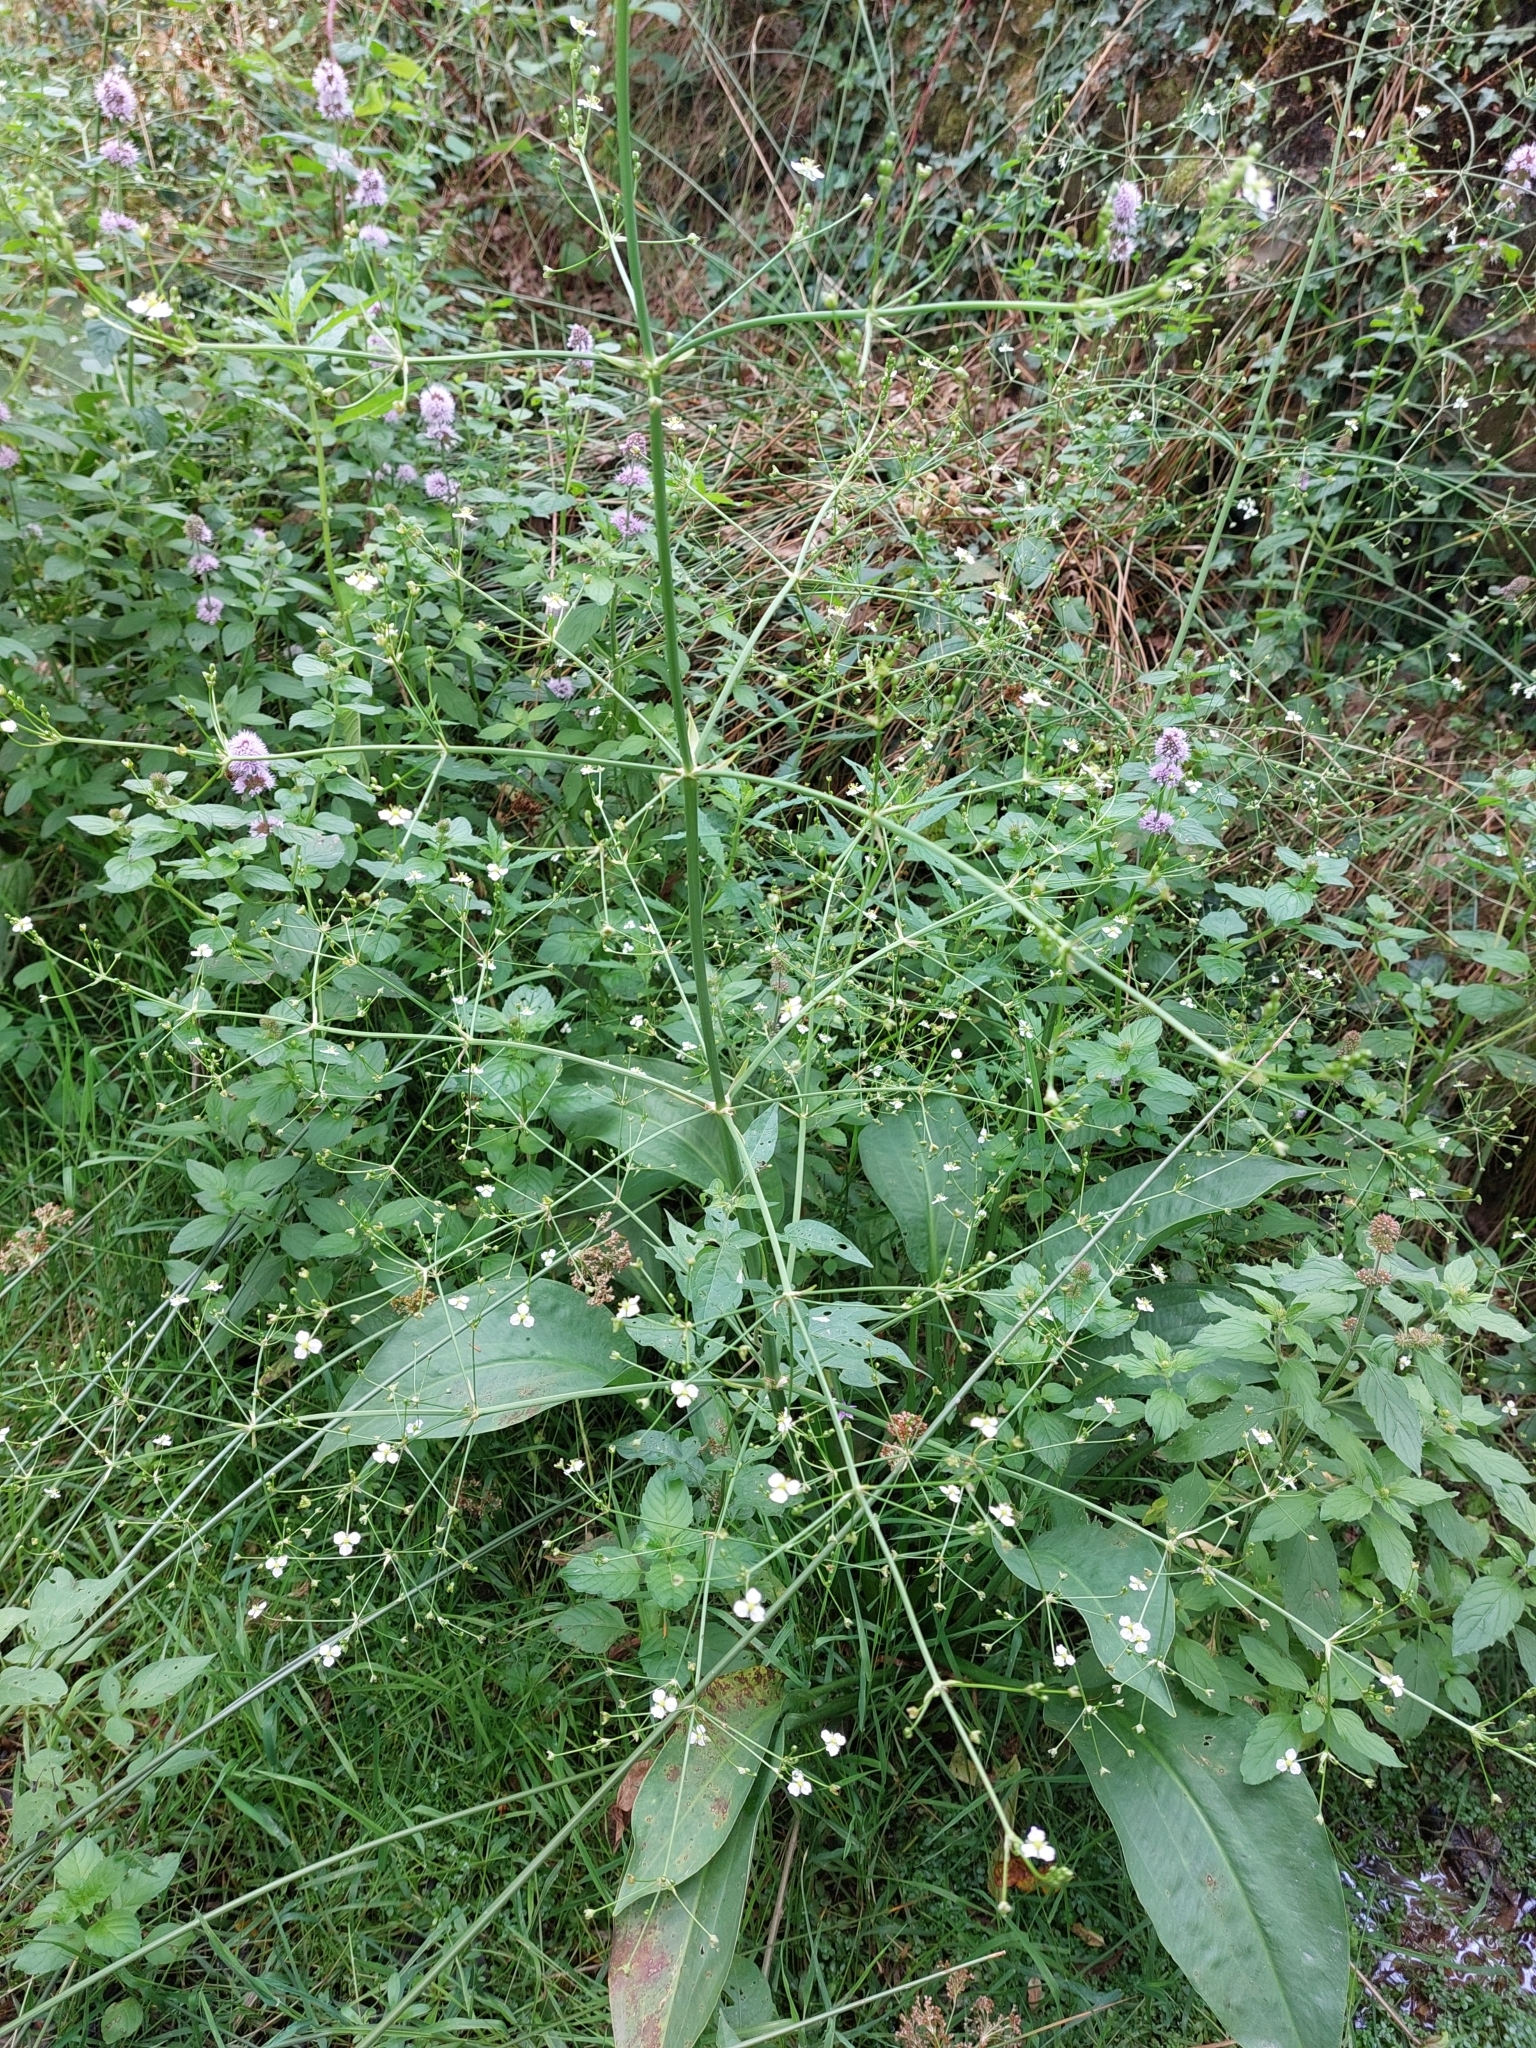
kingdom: Plantae
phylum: Tracheophyta
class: Liliopsida
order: Alismatales
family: Alismataceae
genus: Alisma
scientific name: Alisma plantago-aquatica
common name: Water-plantain
